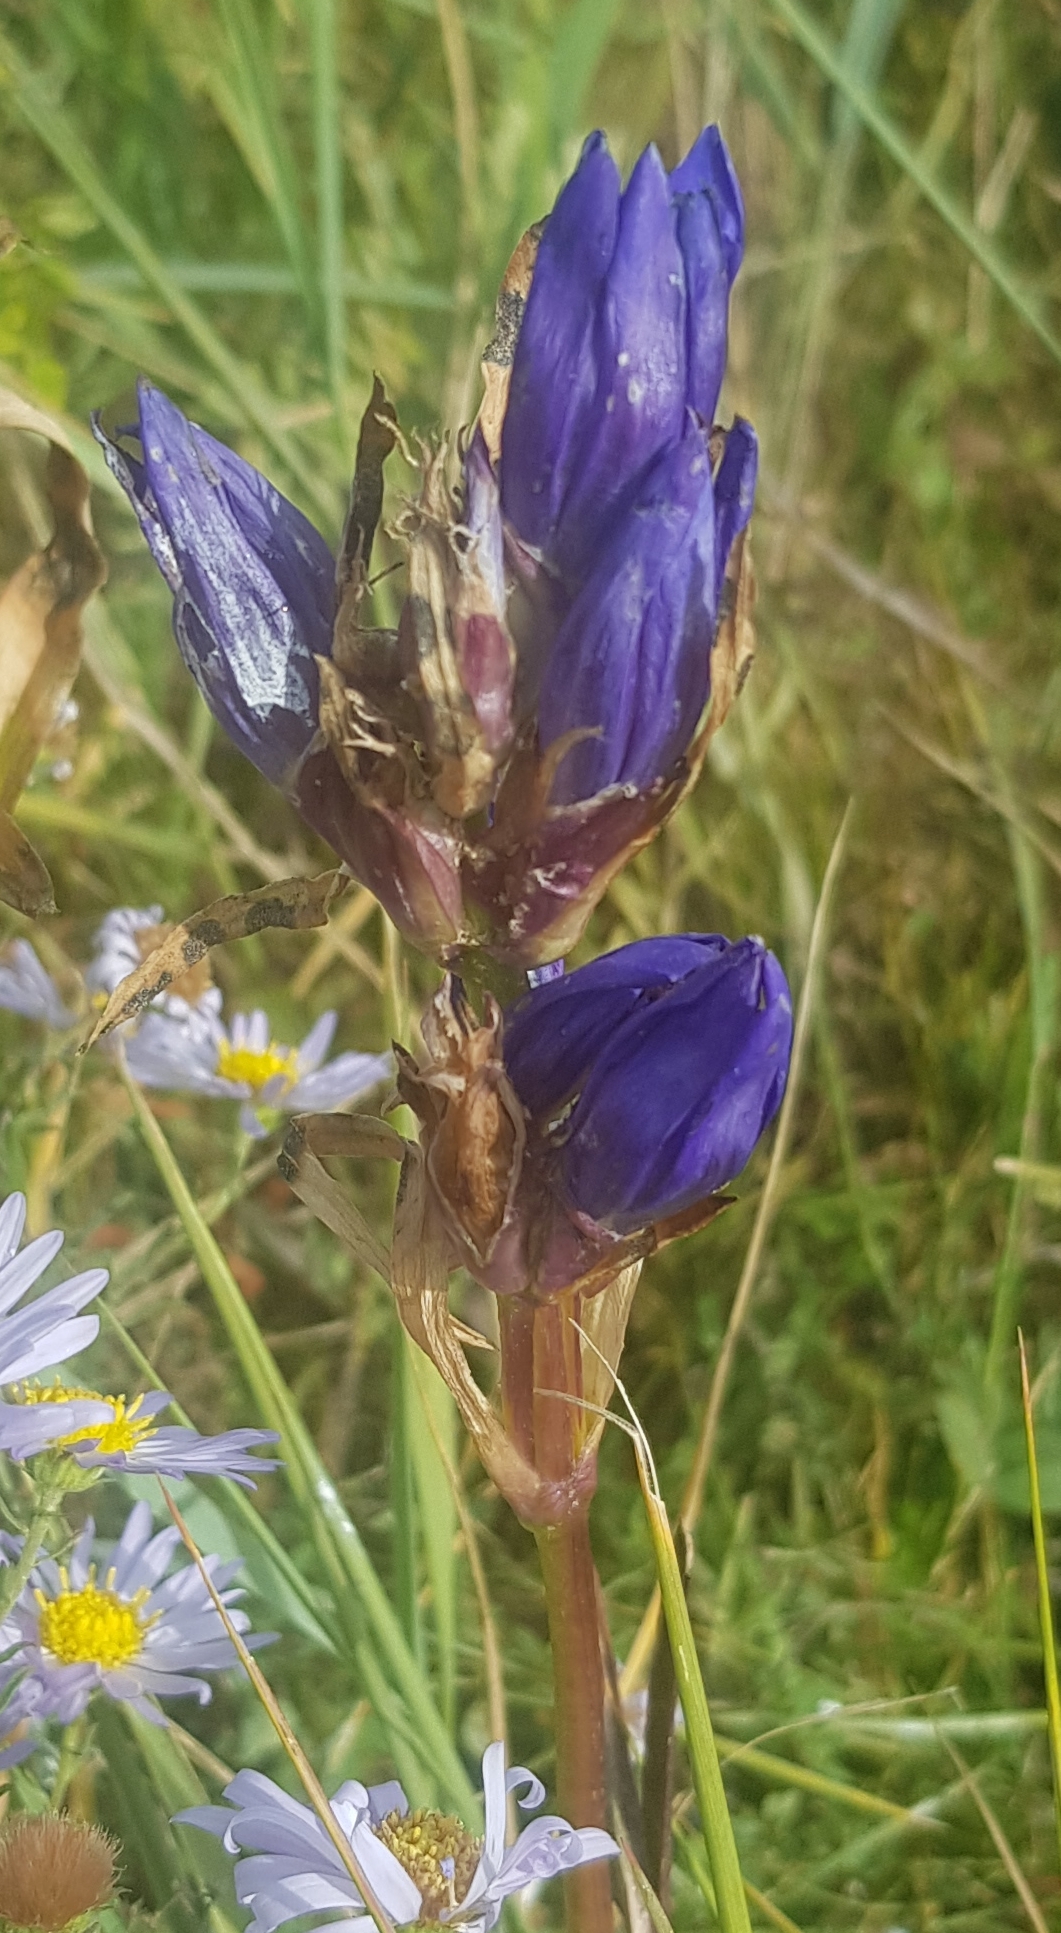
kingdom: Plantae
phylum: Tracheophyta
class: Magnoliopsida
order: Gentianales
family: Gentianaceae
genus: Gentiana
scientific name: Gentiana decumbens
